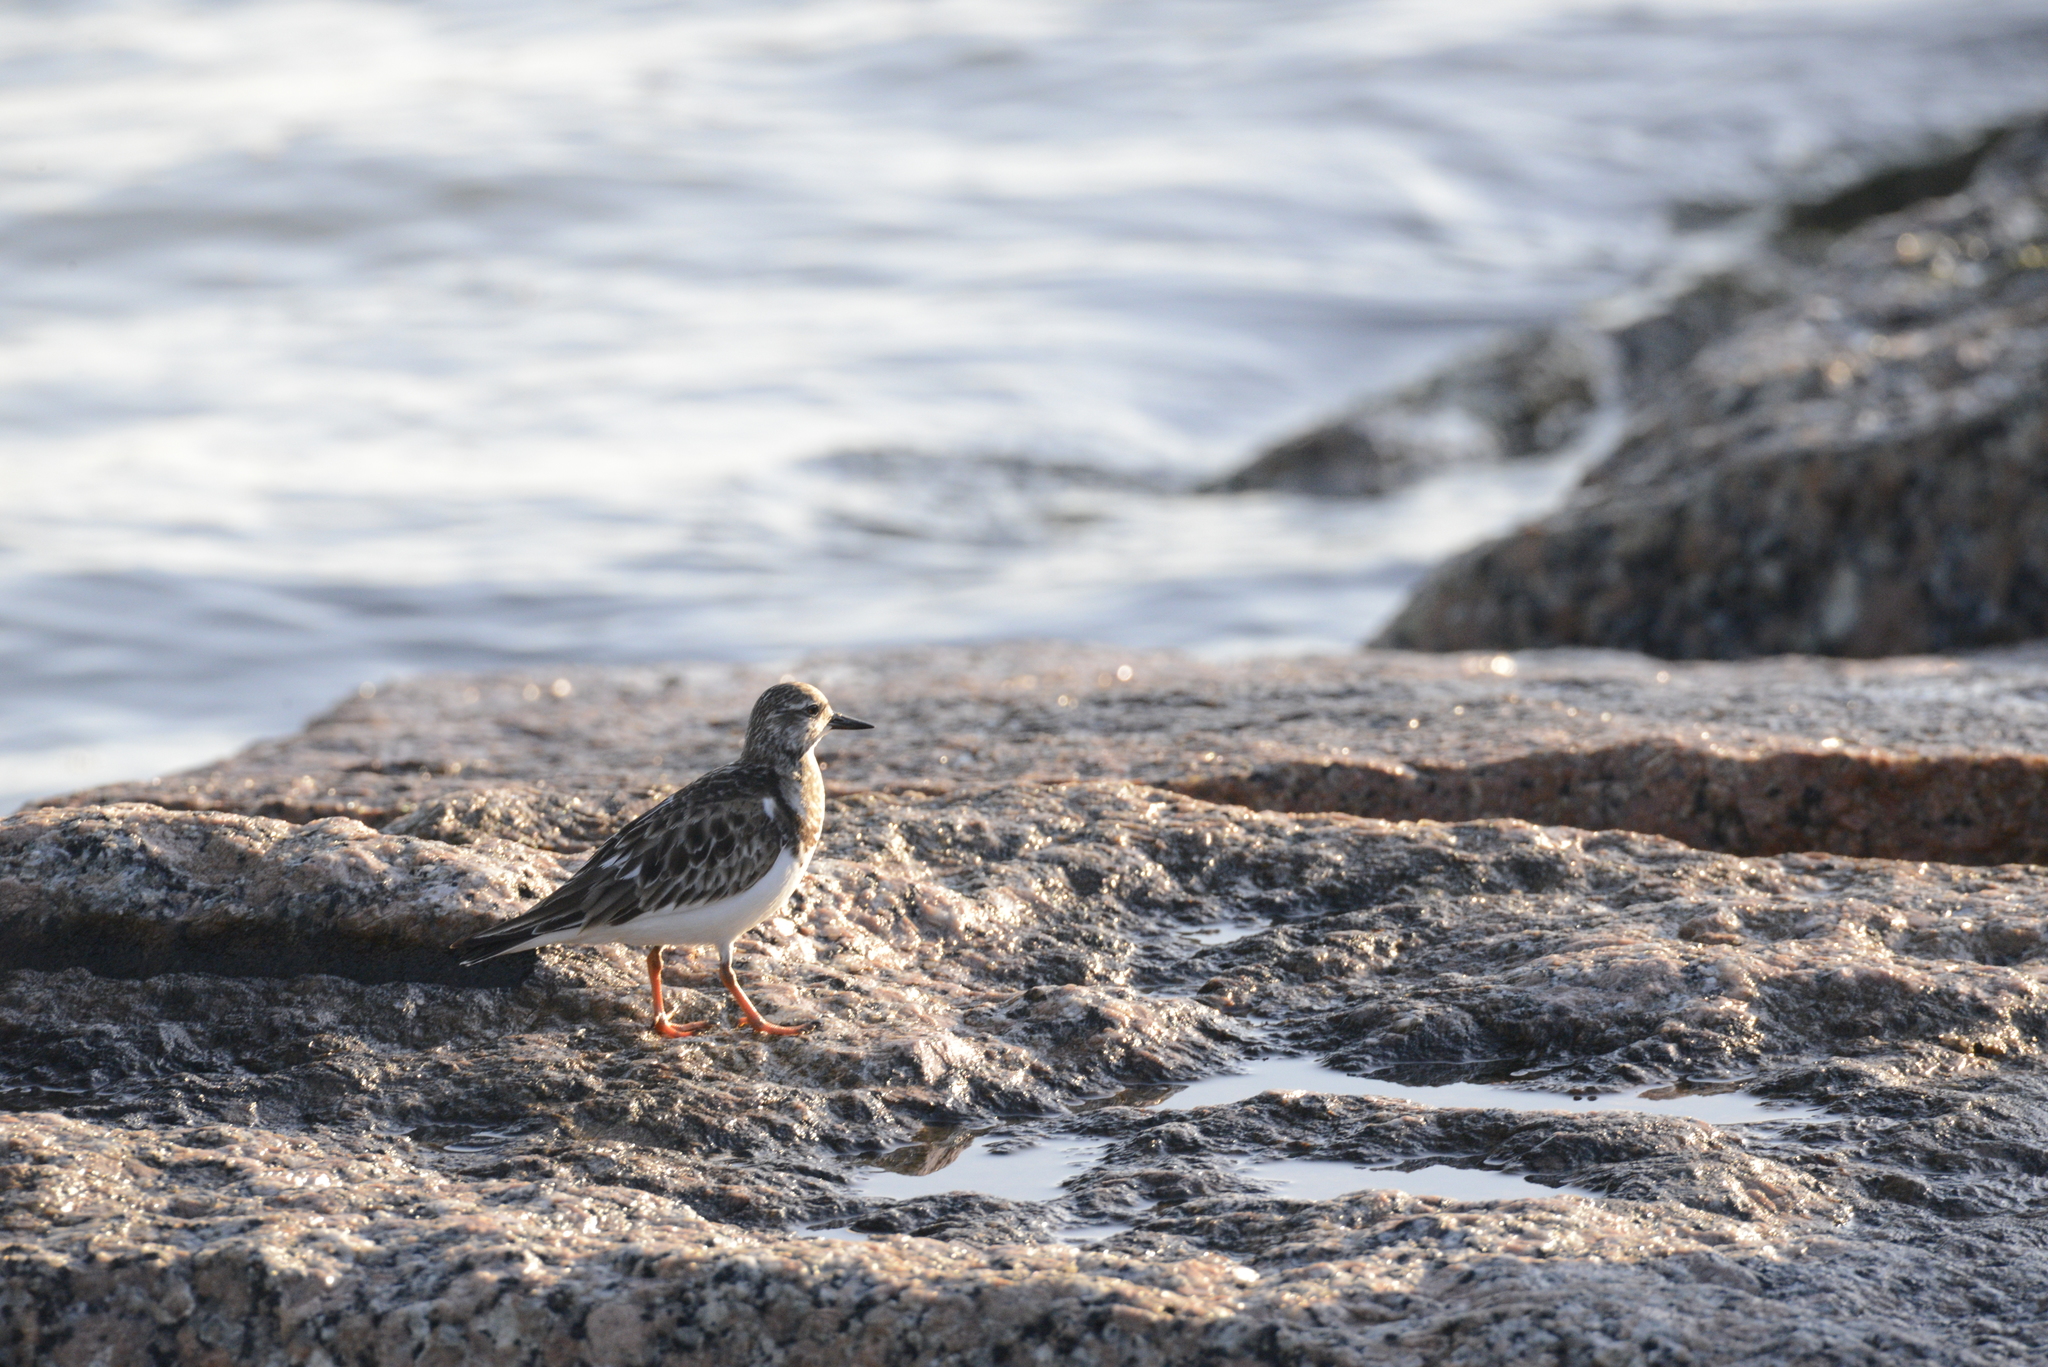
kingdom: Animalia
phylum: Chordata
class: Aves
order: Charadriiformes
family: Scolopacidae
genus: Arenaria
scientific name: Arenaria interpres
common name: Ruddy turnstone
